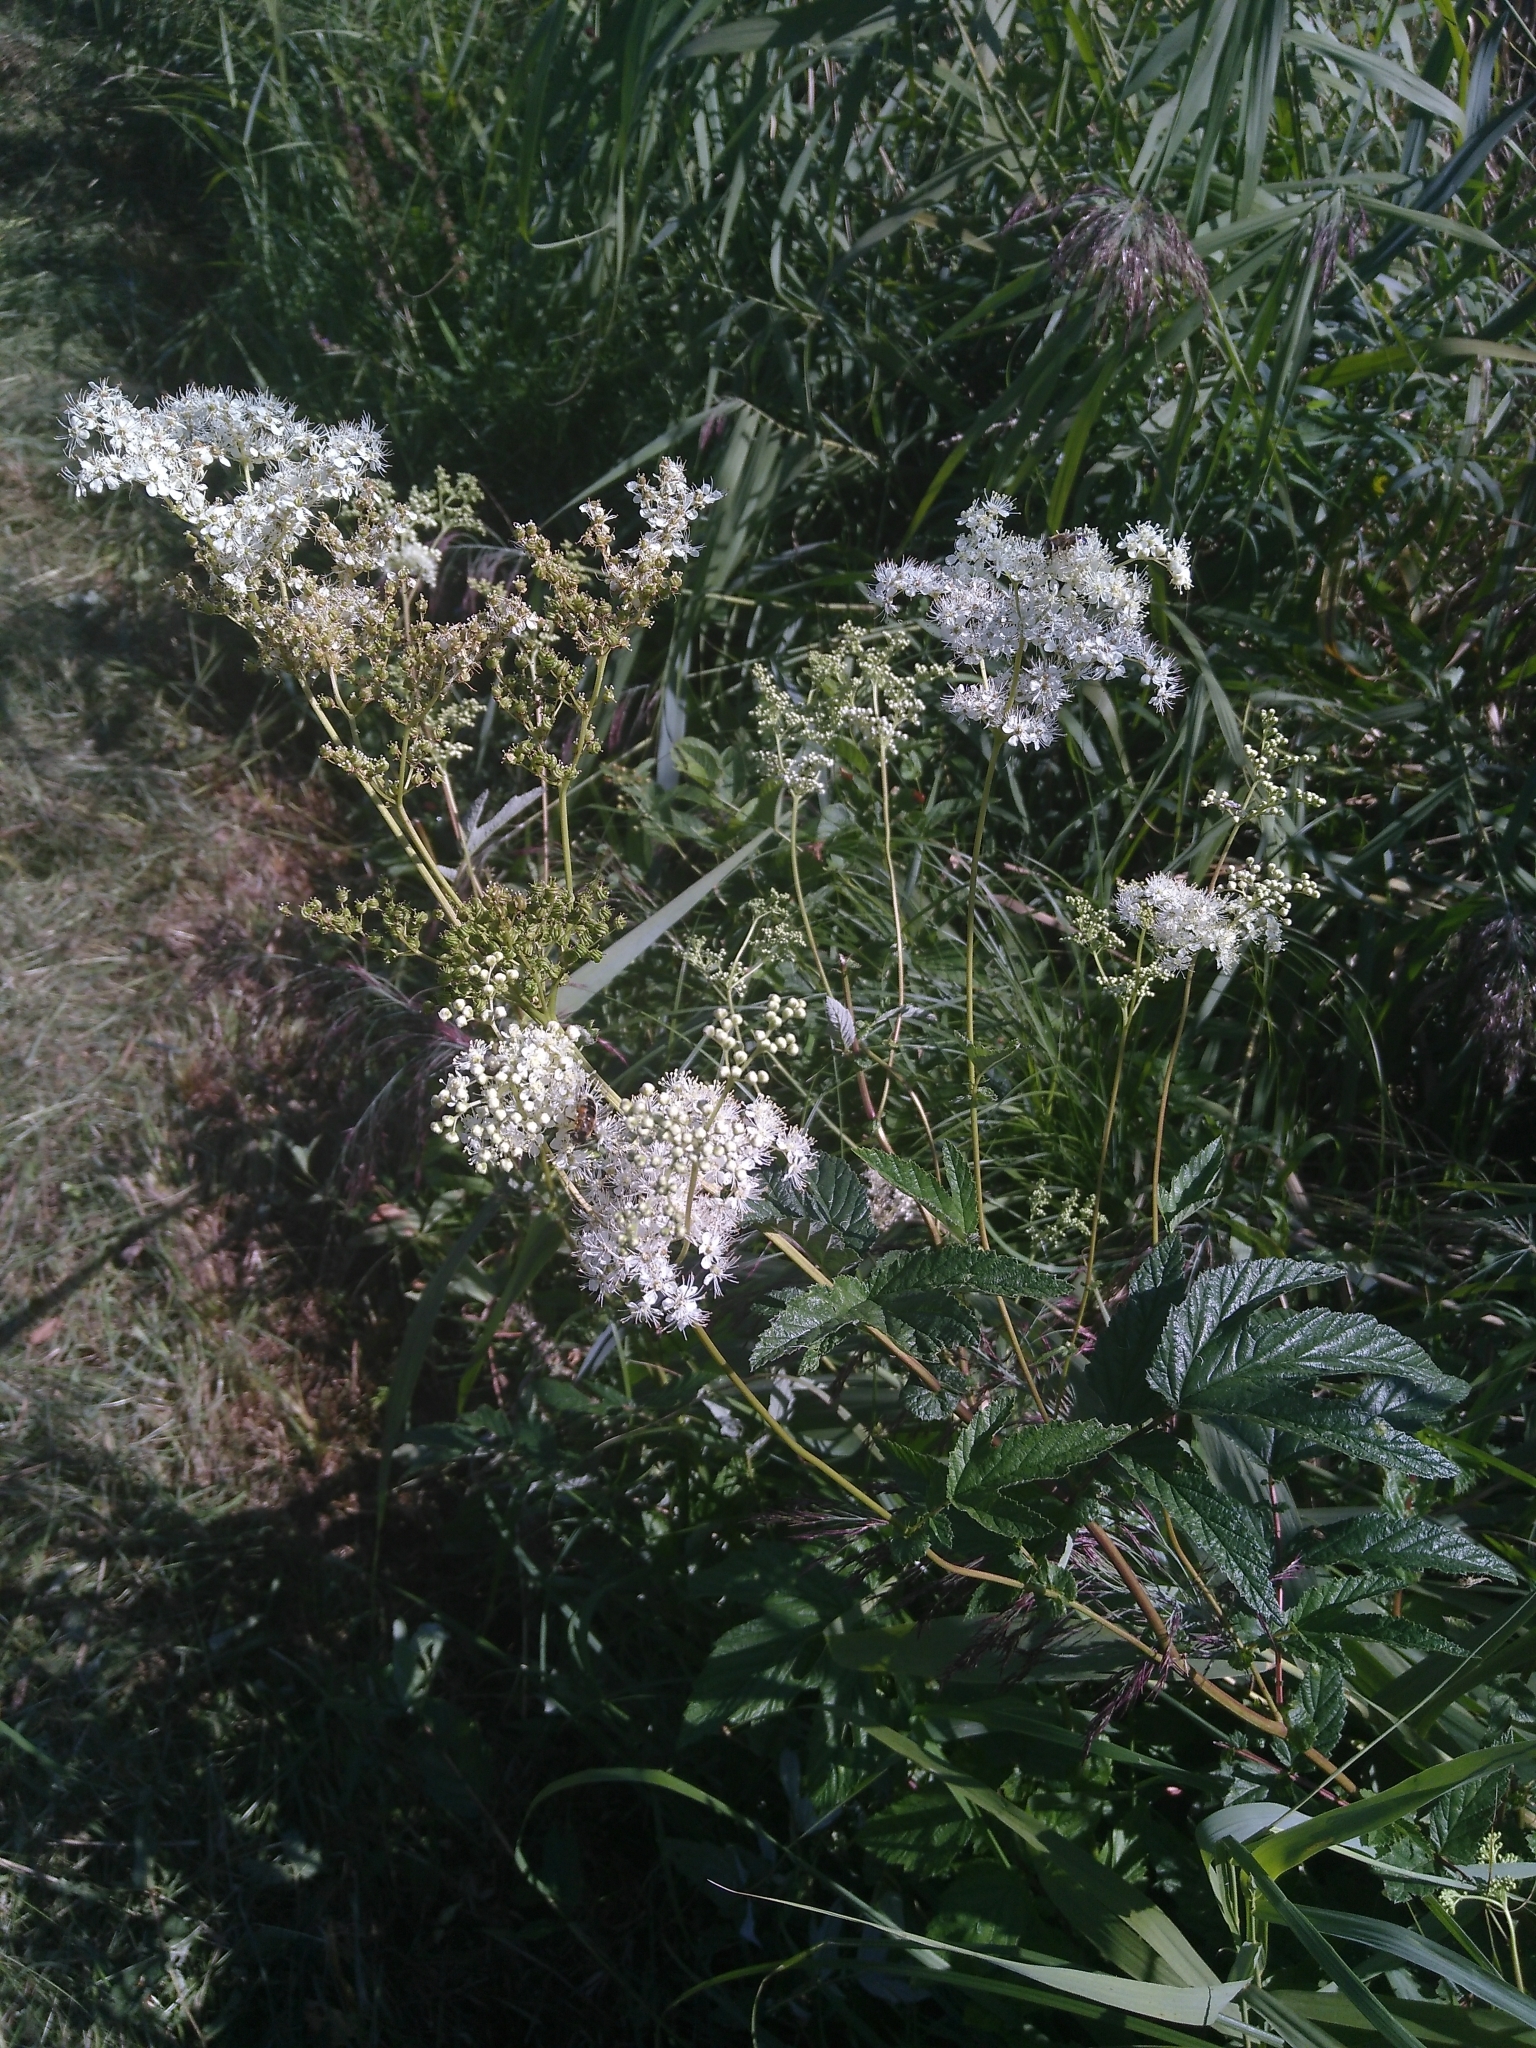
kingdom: Plantae
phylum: Tracheophyta
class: Magnoliopsida
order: Rosales
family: Rosaceae
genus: Filipendula
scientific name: Filipendula ulmaria
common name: Meadowsweet
